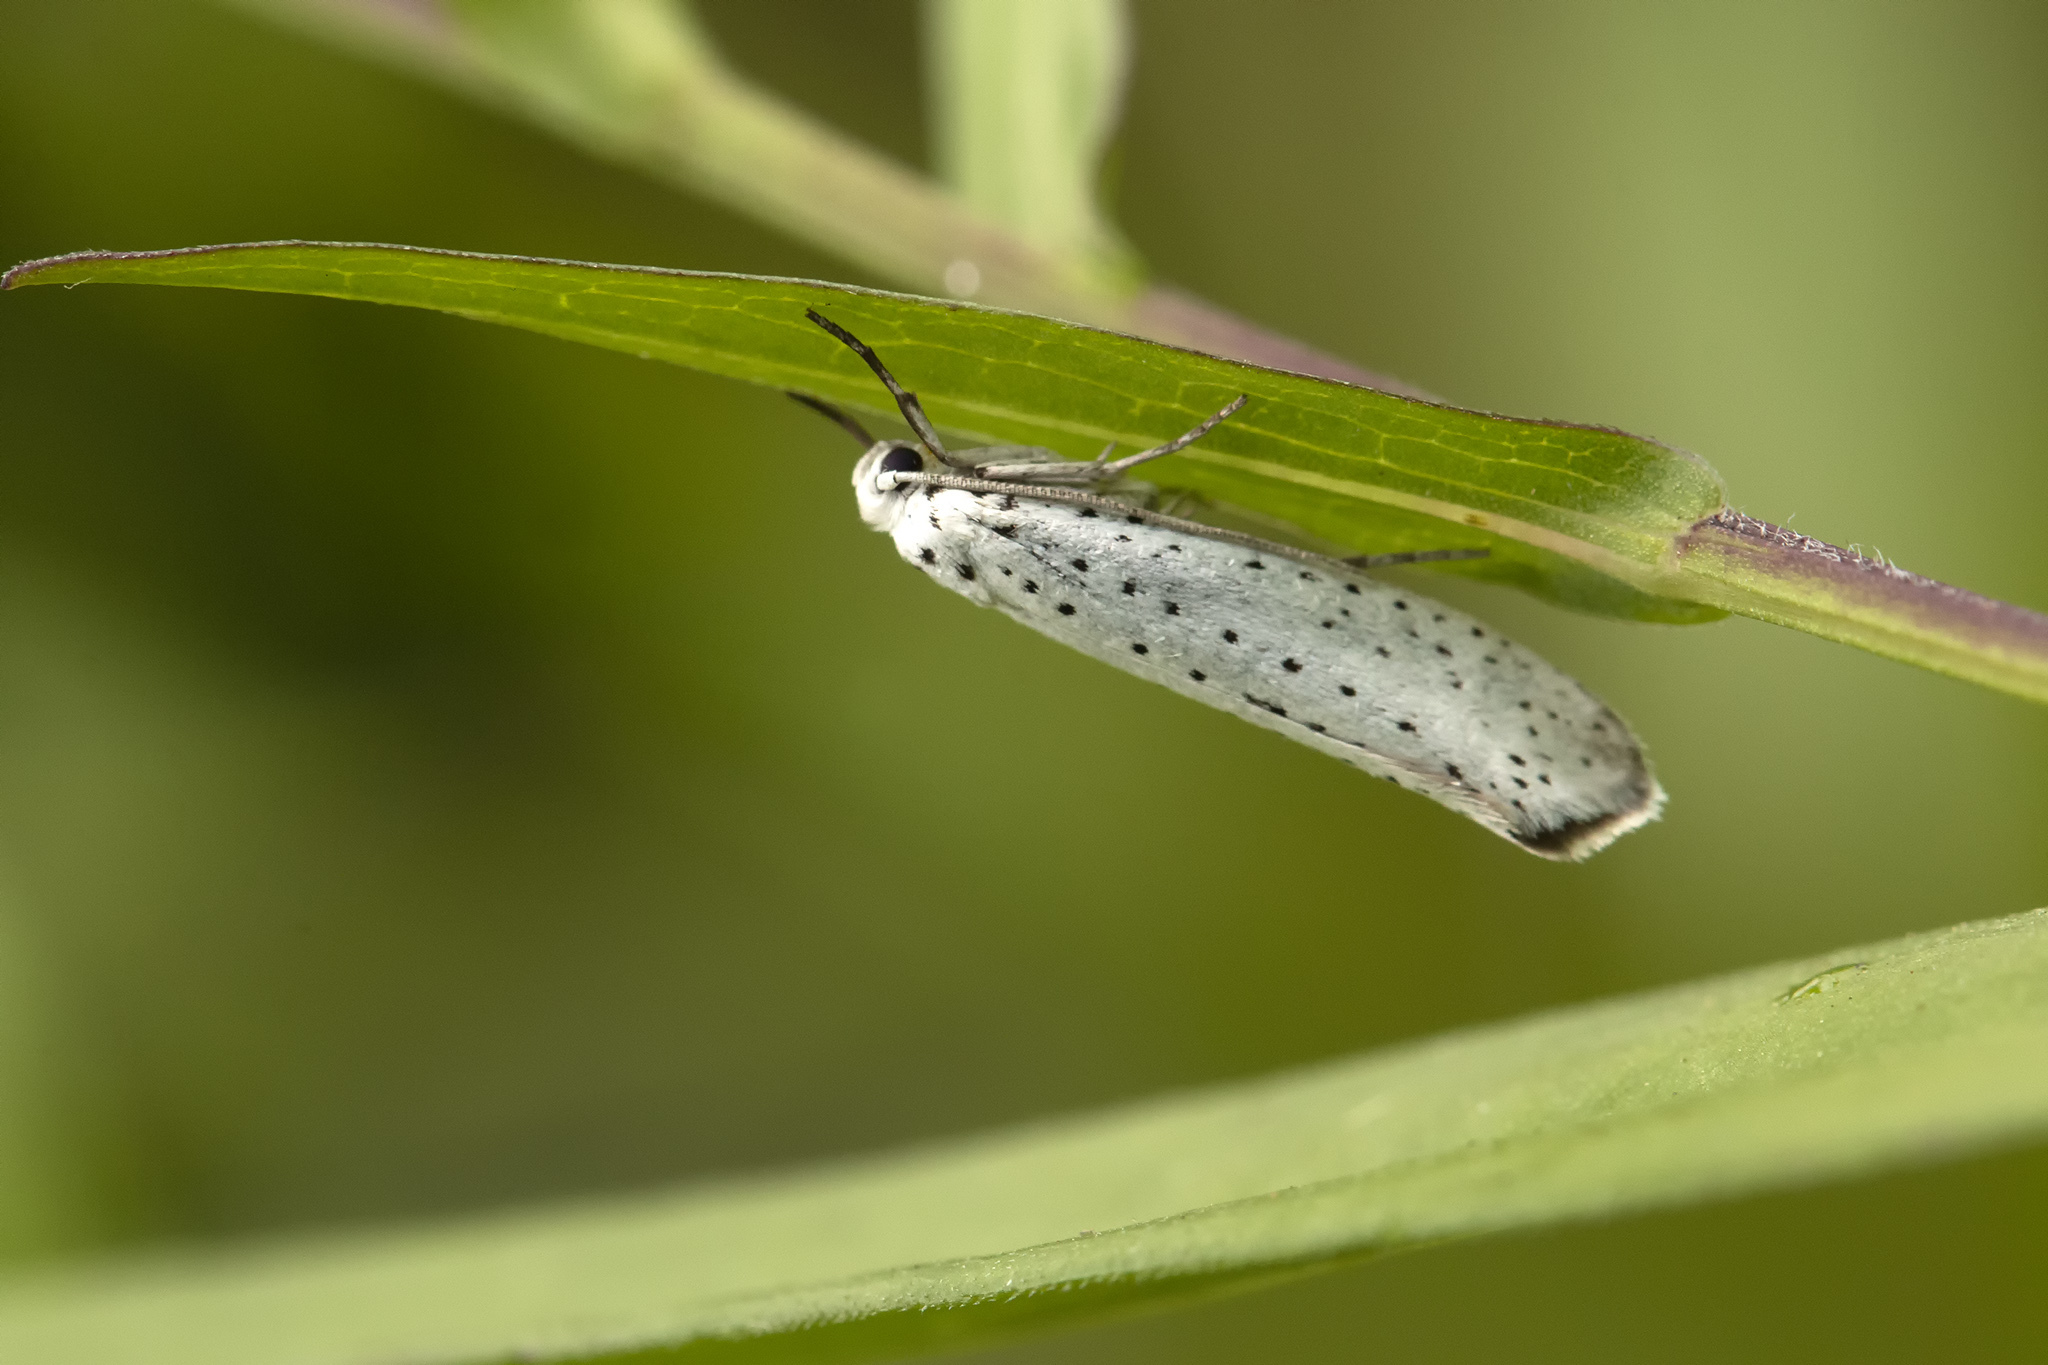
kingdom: Animalia
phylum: Arthropoda
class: Insecta
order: Lepidoptera
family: Yponomeutidae
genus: Yponomeuta
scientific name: Yponomeuta evonymella
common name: Bird-cherry ermine
